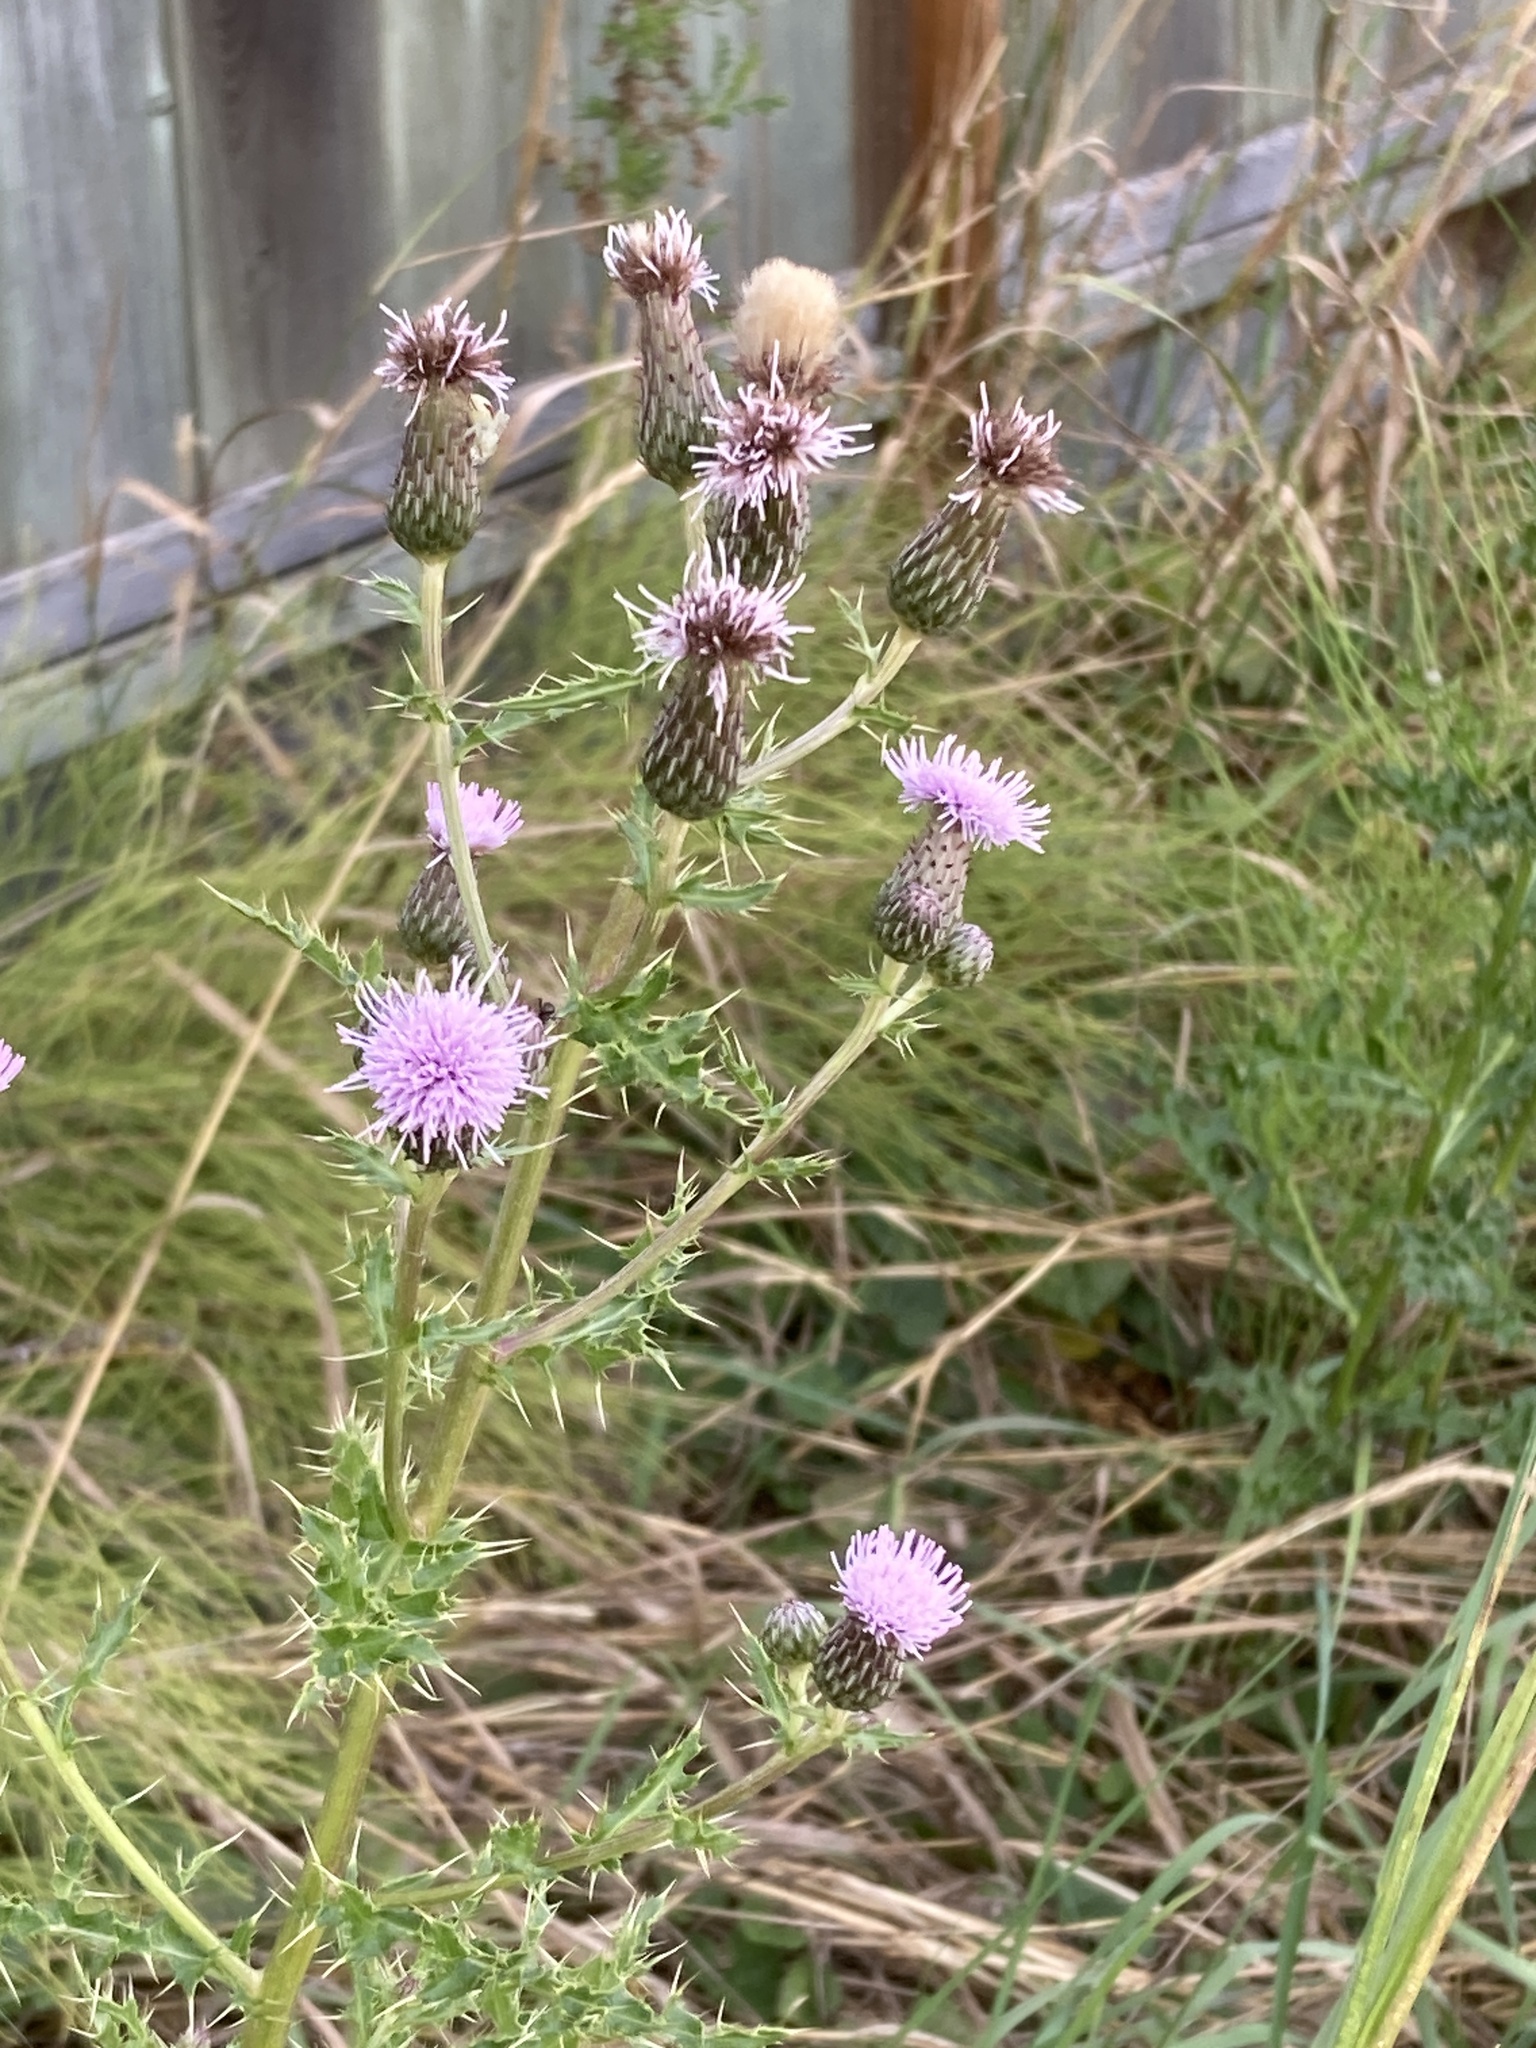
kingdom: Plantae
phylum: Tracheophyta
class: Magnoliopsida
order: Asterales
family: Asteraceae
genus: Cirsium
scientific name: Cirsium arvense
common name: Creeping thistle
